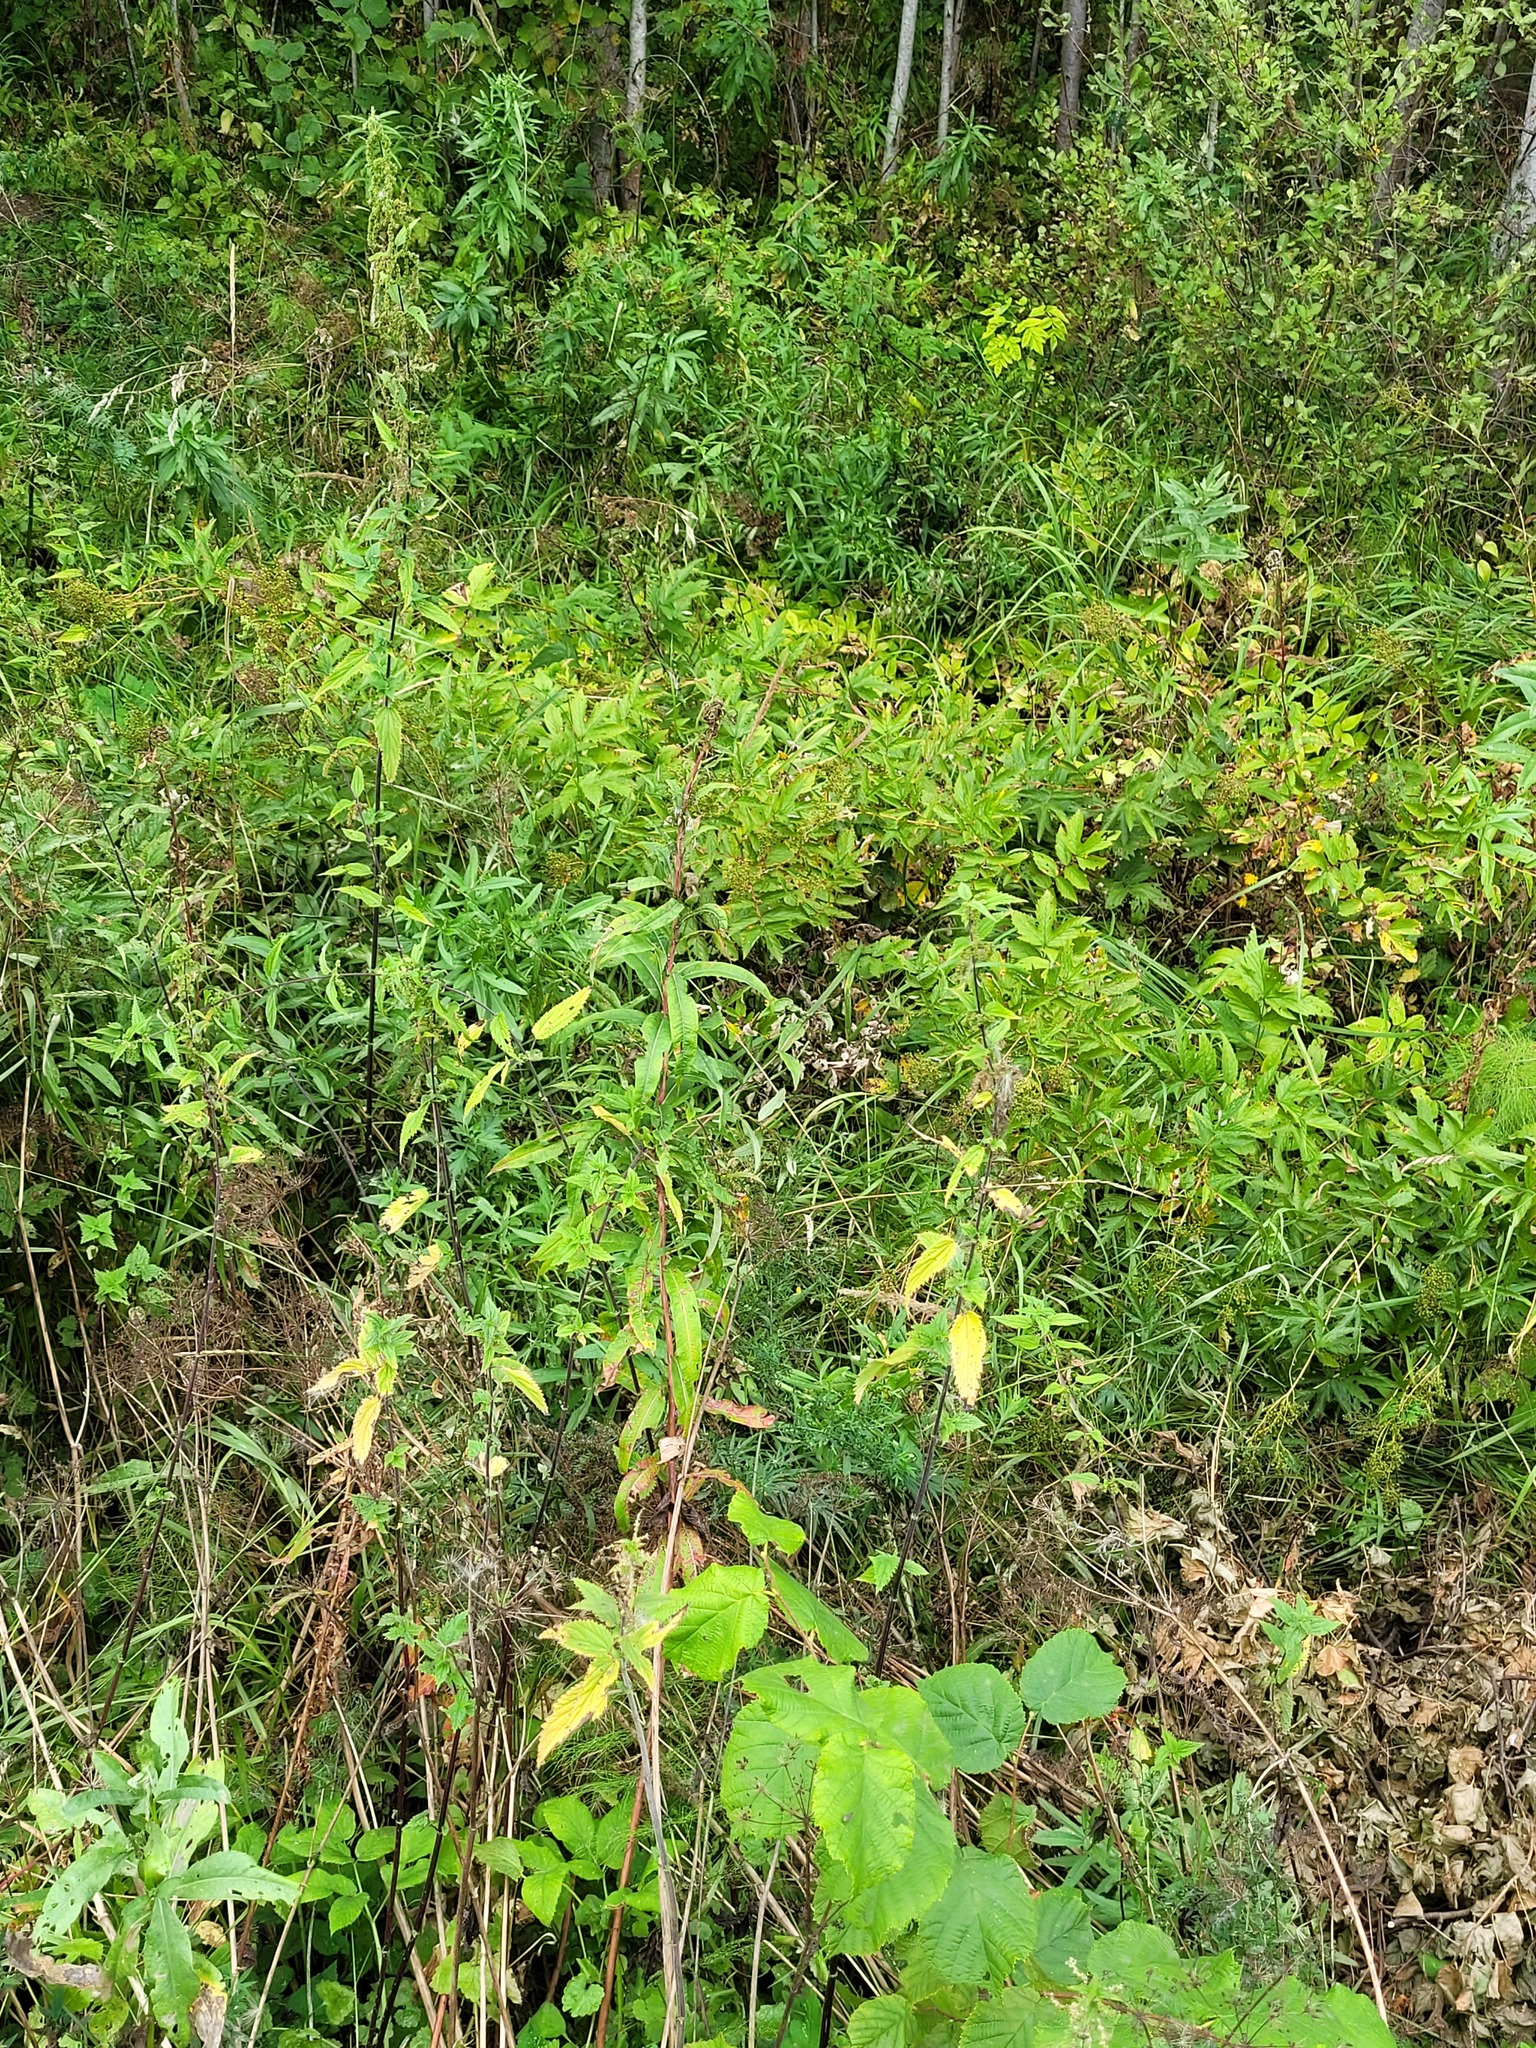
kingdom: Plantae
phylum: Tracheophyta
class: Magnoliopsida
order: Rosales
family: Rosaceae
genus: Filipendula
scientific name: Filipendula ulmaria
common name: Meadowsweet
